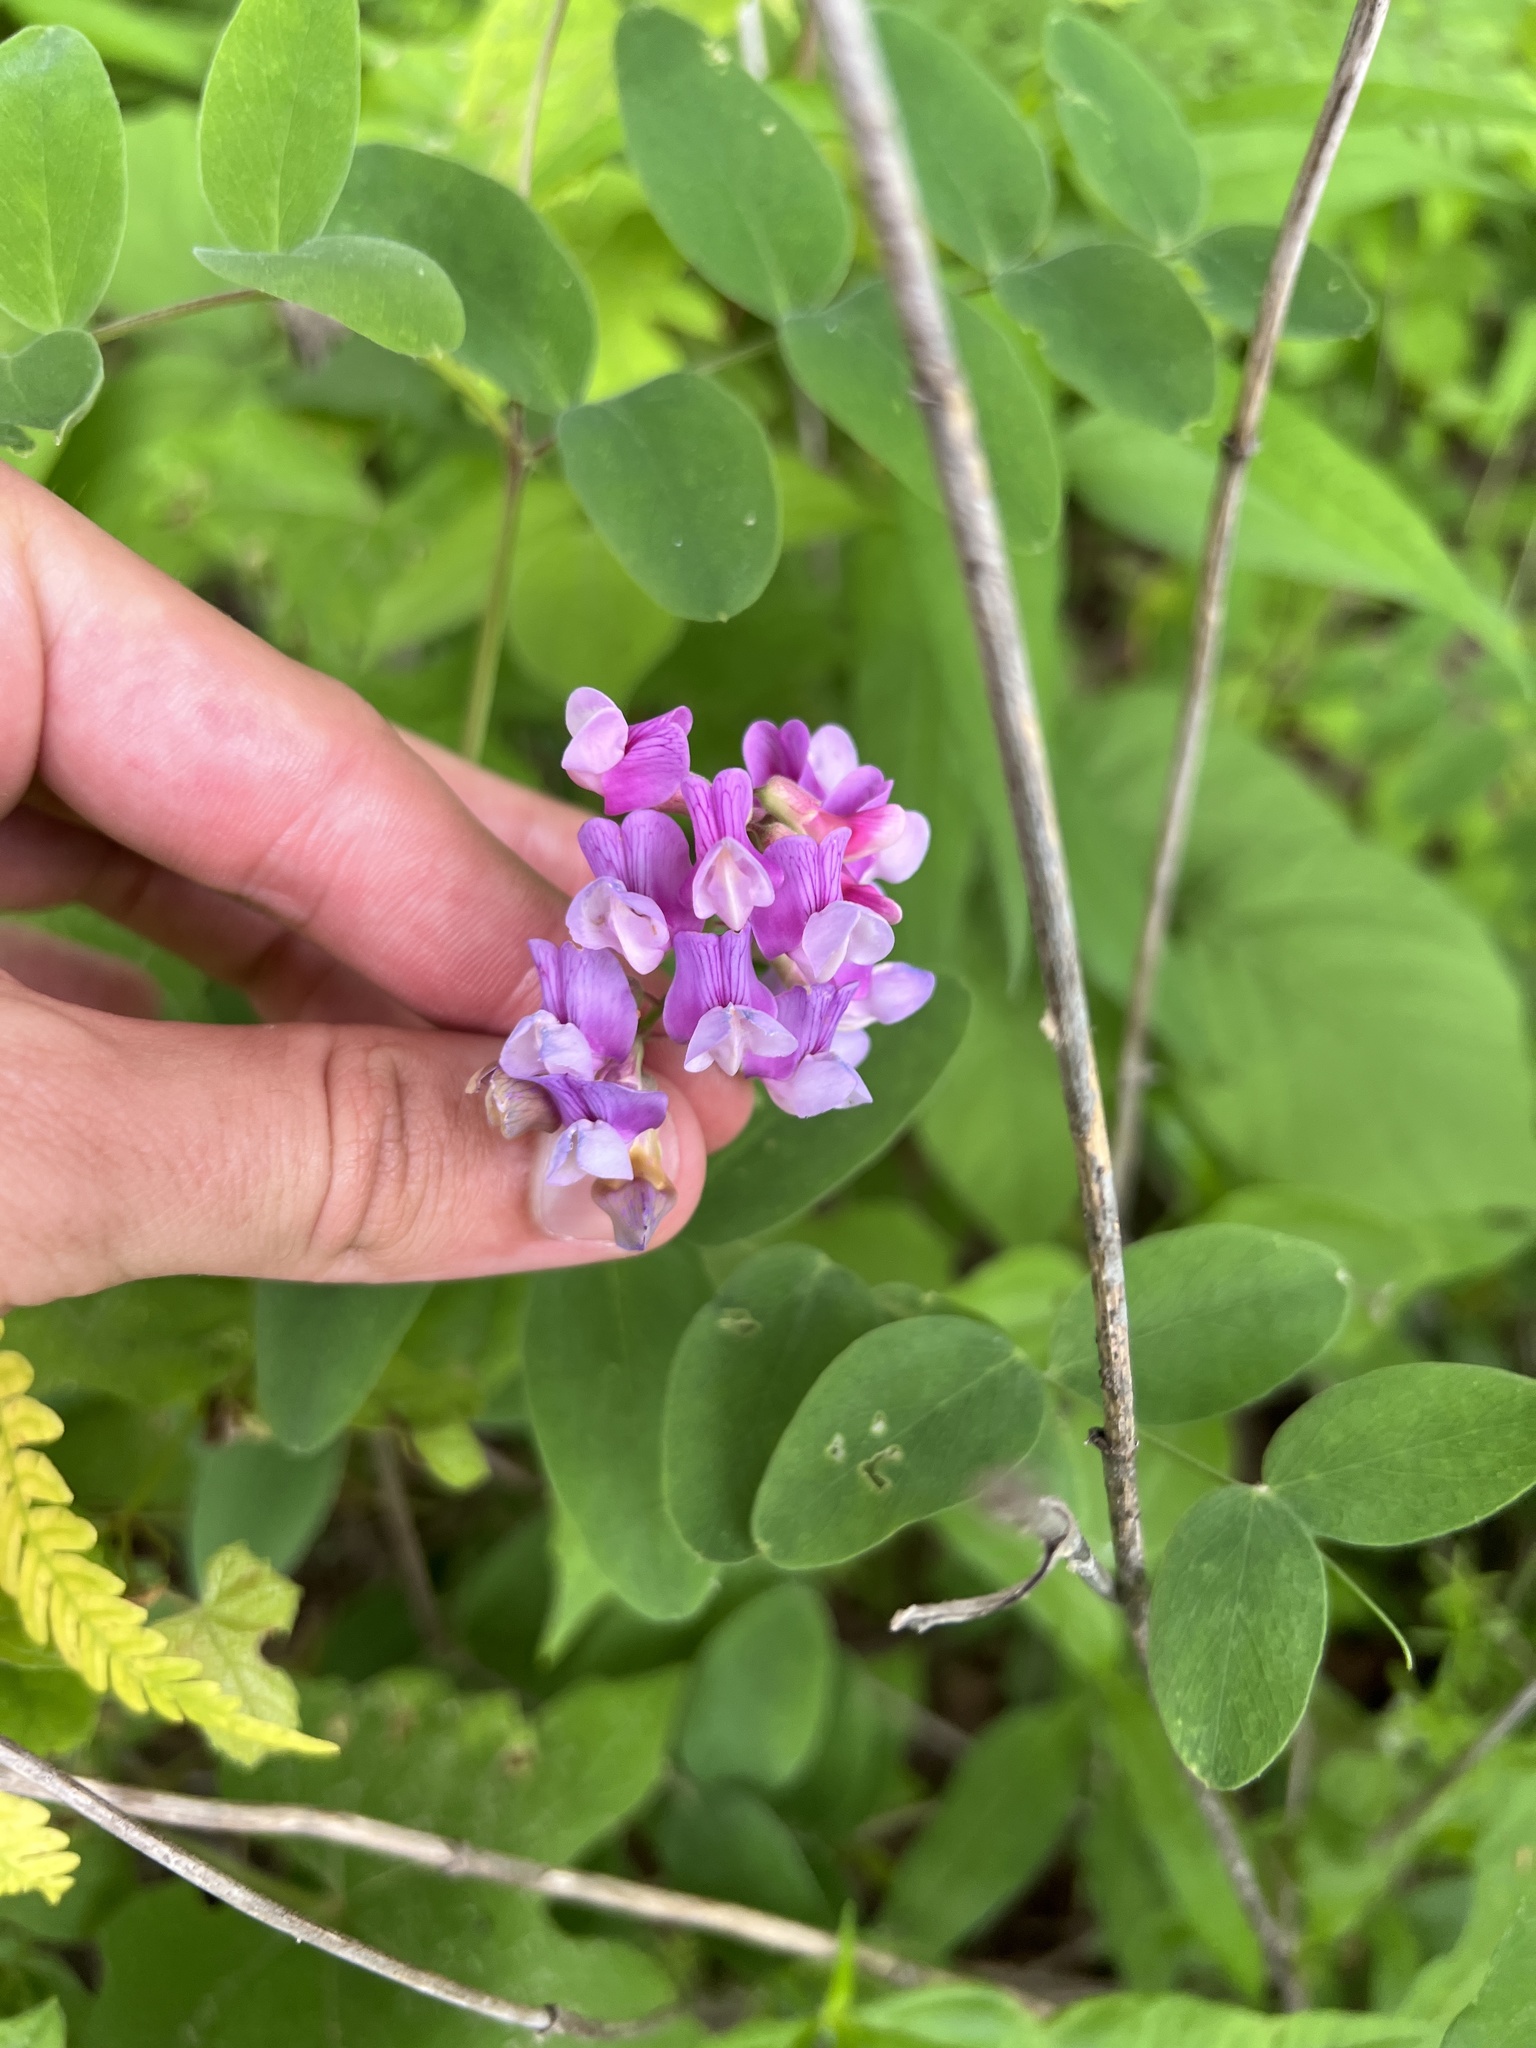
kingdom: Plantae
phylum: Tracheophyta
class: Magnoliopsida
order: Fabales
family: Fabaceae
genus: Lathyrus
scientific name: Lathyrus venosus
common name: Forest-pea
